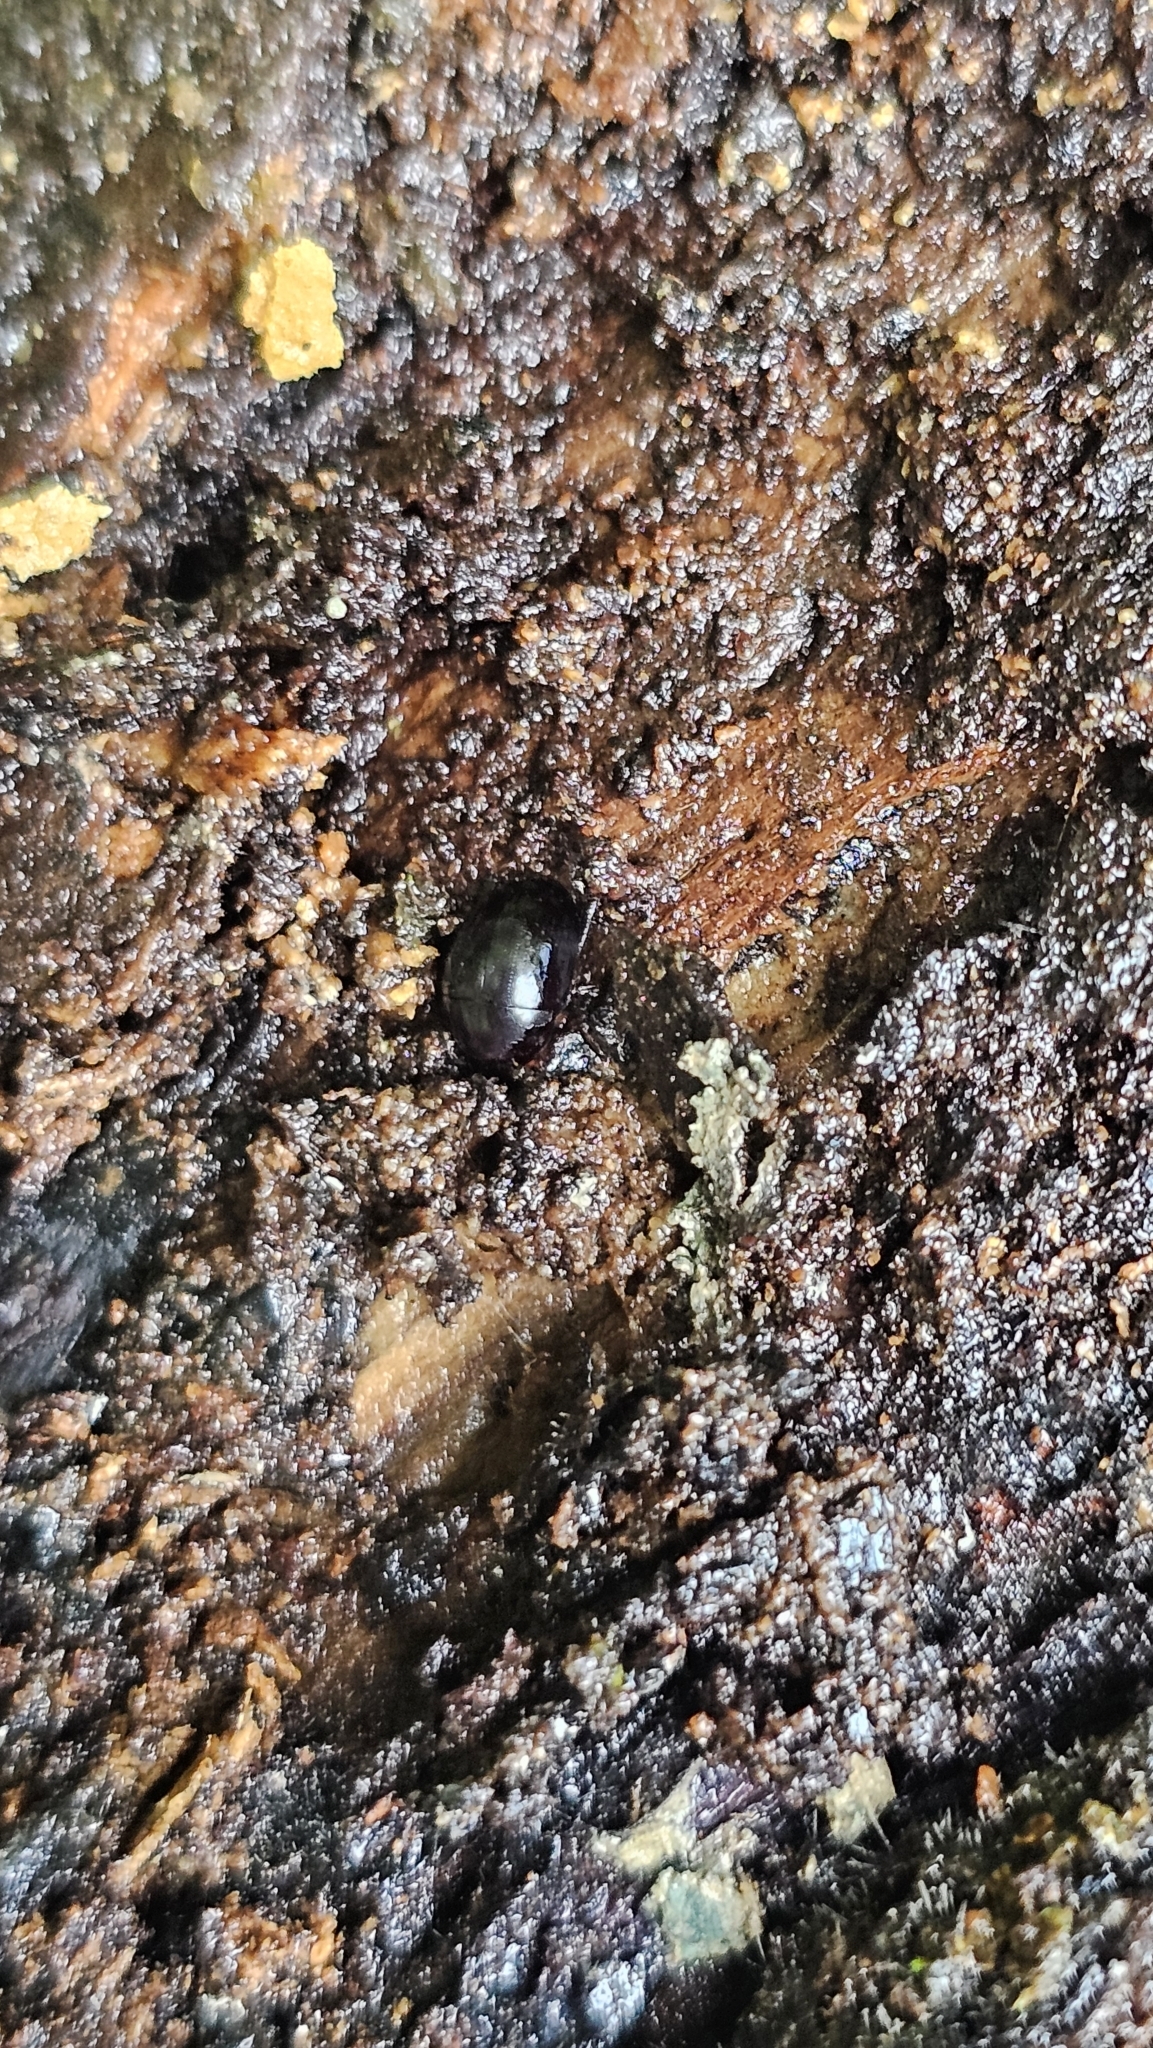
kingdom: Animalia
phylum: Arthropoda
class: Insecta
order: Coleoptera
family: Hydrophilidae
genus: Dactylosternum
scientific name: Dactylosternum abdominale
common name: Water scavenger beetle
